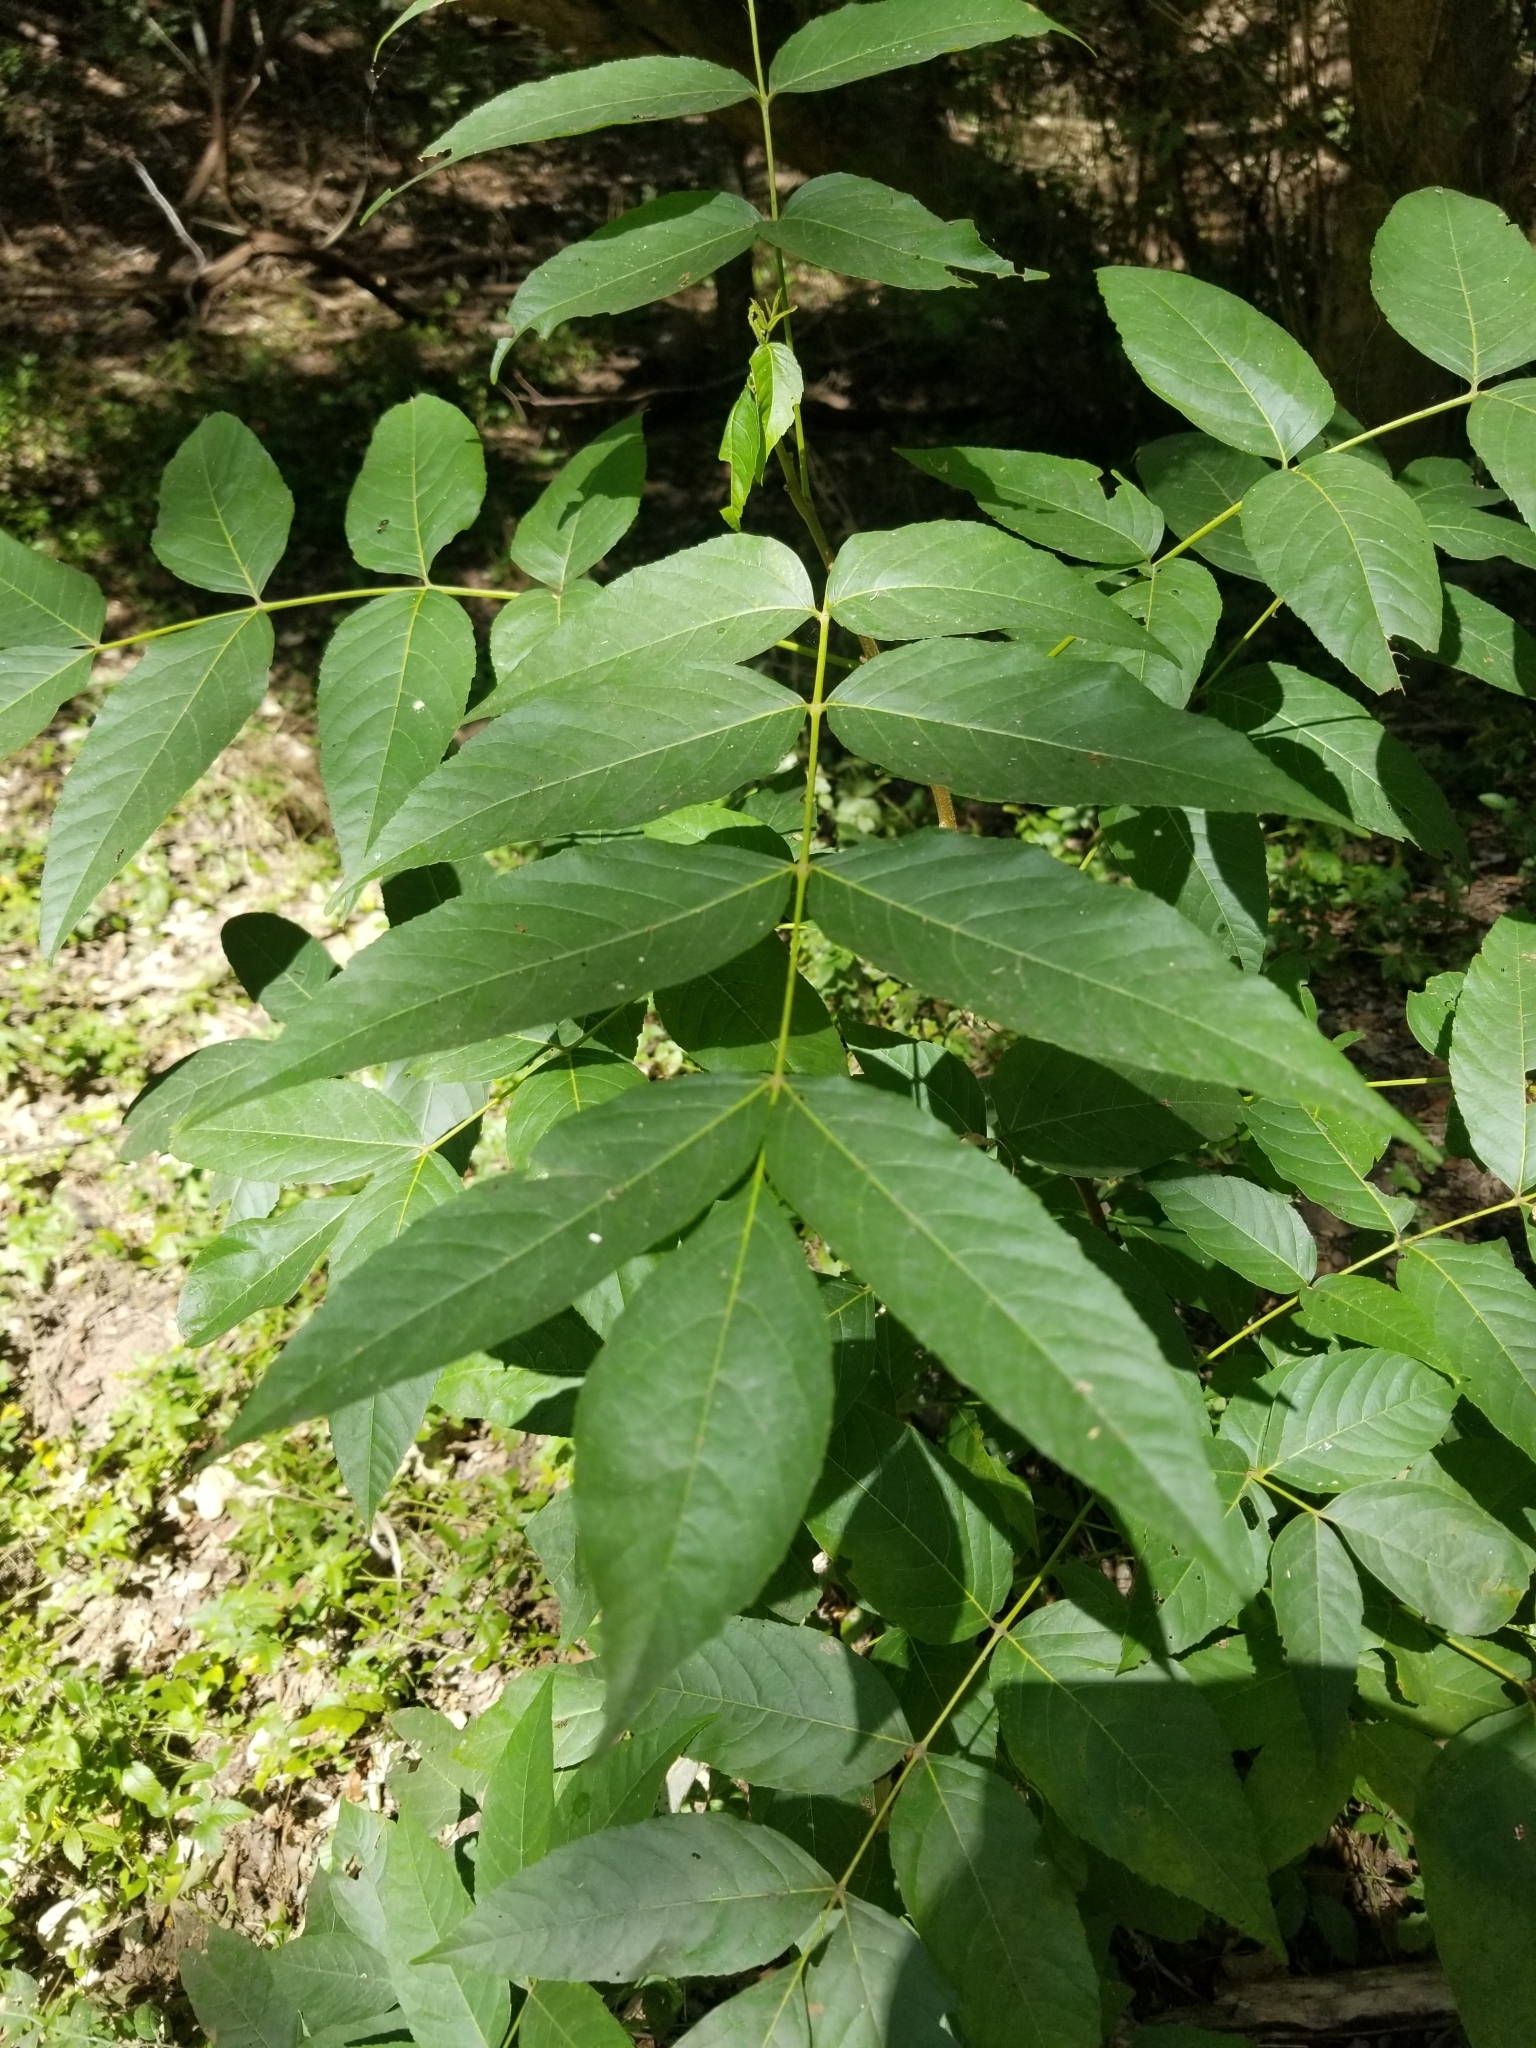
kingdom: Plantae
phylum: Tracheophyta
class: Magnoliopsida
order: Sapindales
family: Sapindaceae
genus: Ungnadia
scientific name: Ungnadia speciosa
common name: Texas-buckeye
